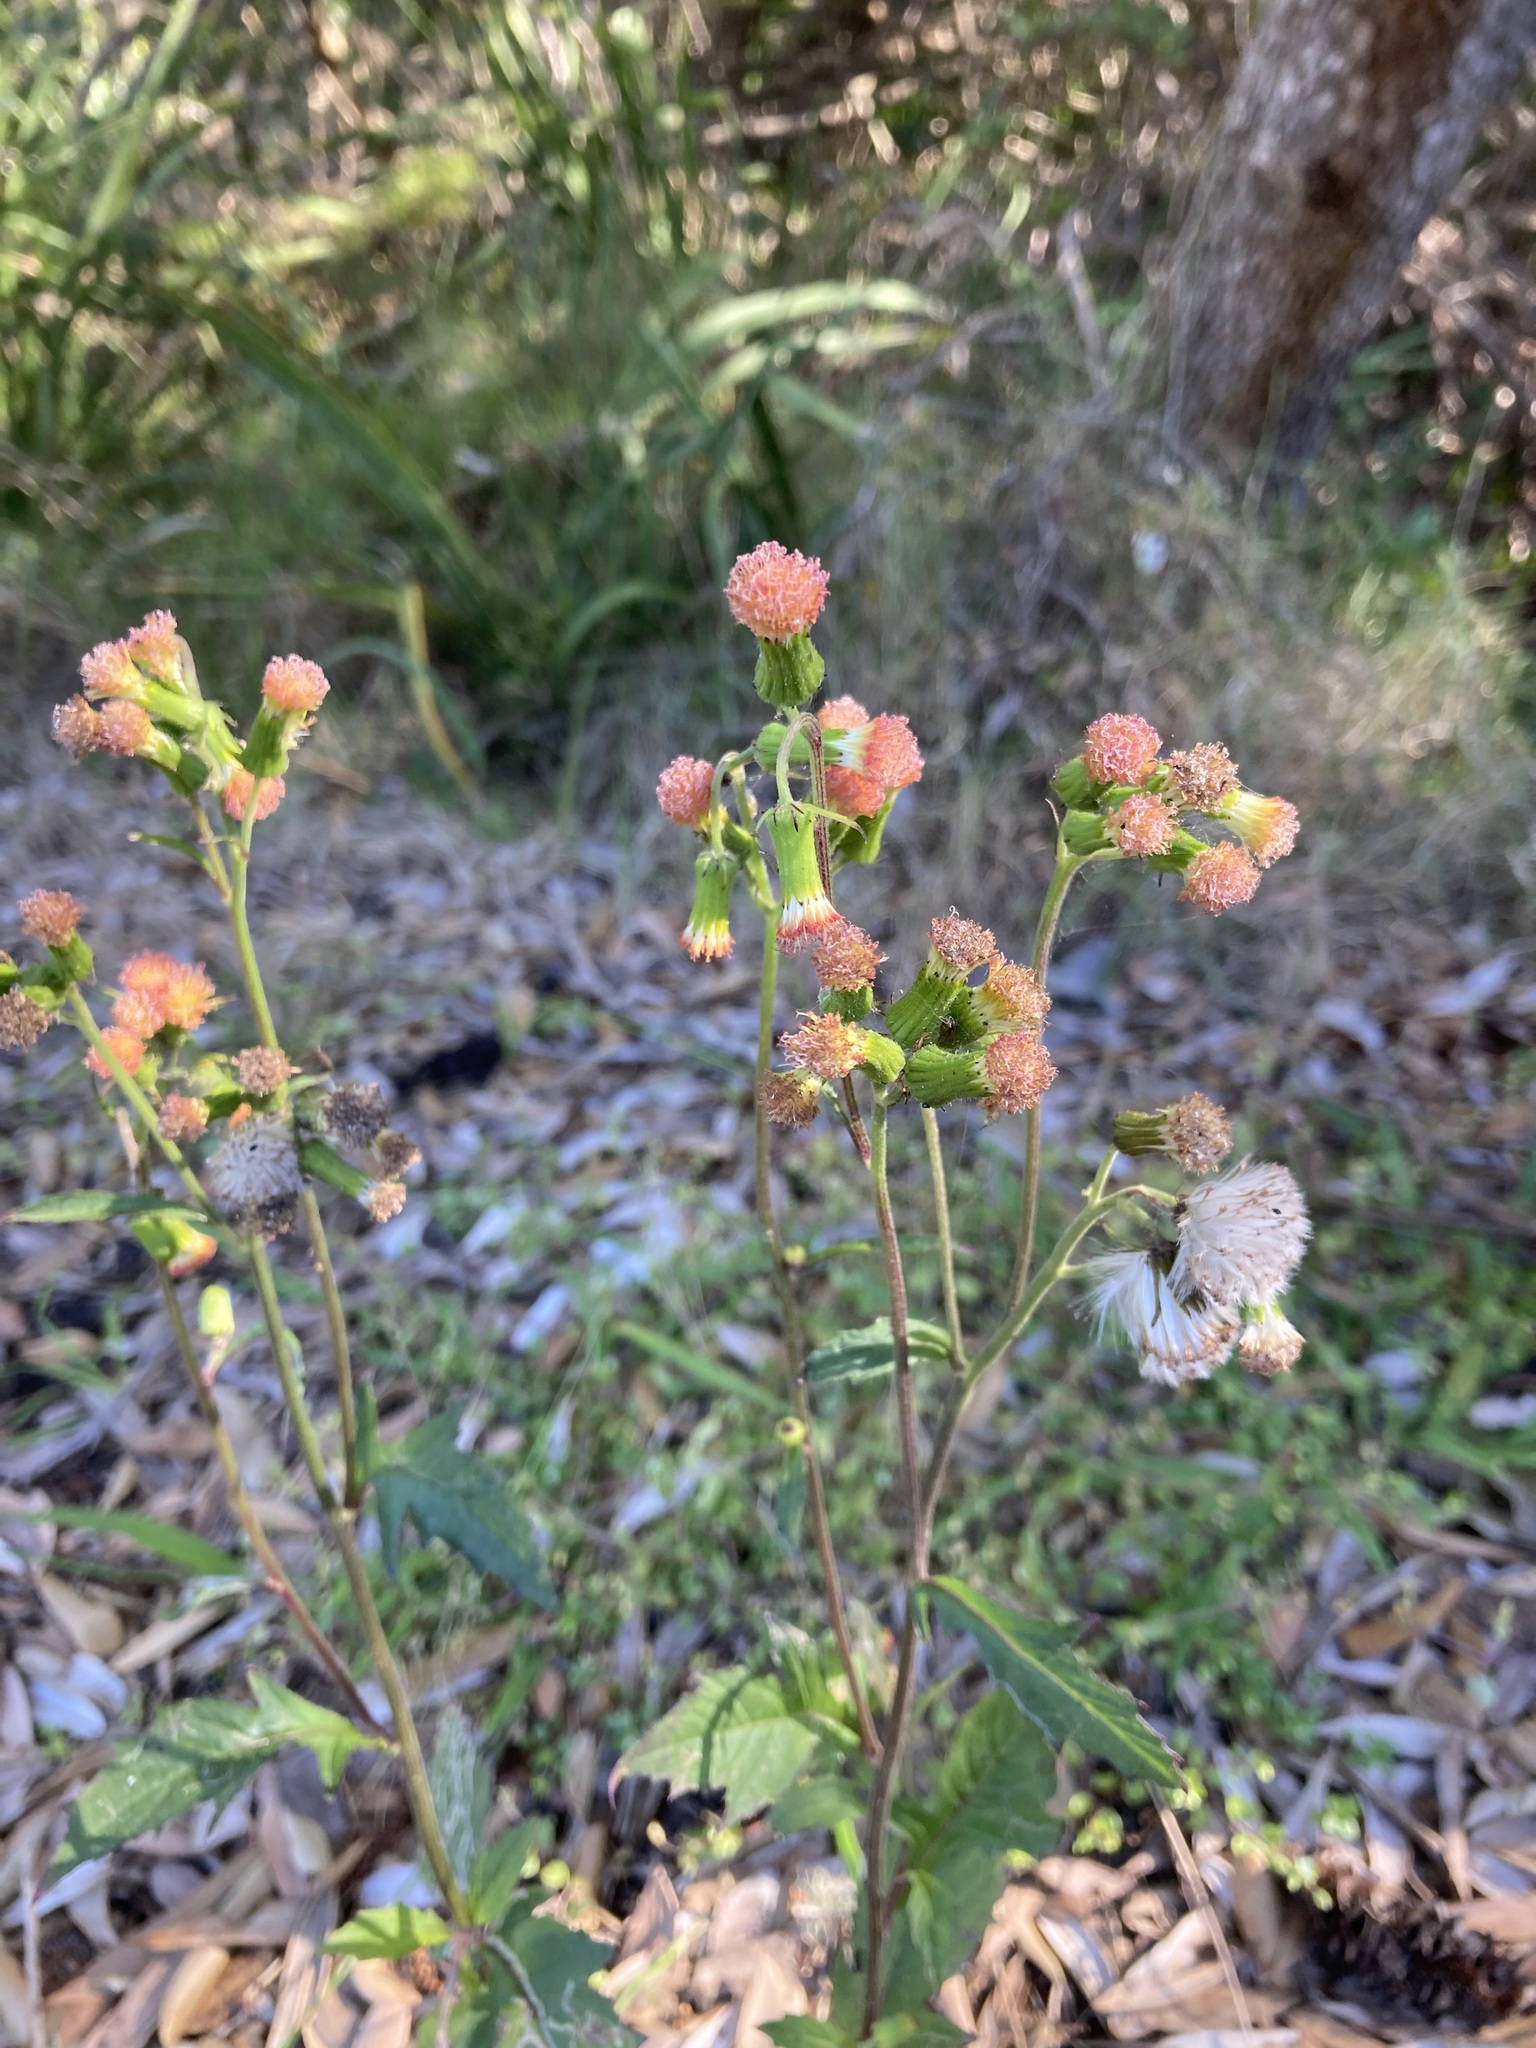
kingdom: Plantae
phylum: Tracheophyta
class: Magnoliopsida
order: Asterales
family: Asteraceae
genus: Crassocephalum
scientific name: Crassocephalum crepidioides
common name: Redflower ragleaf
